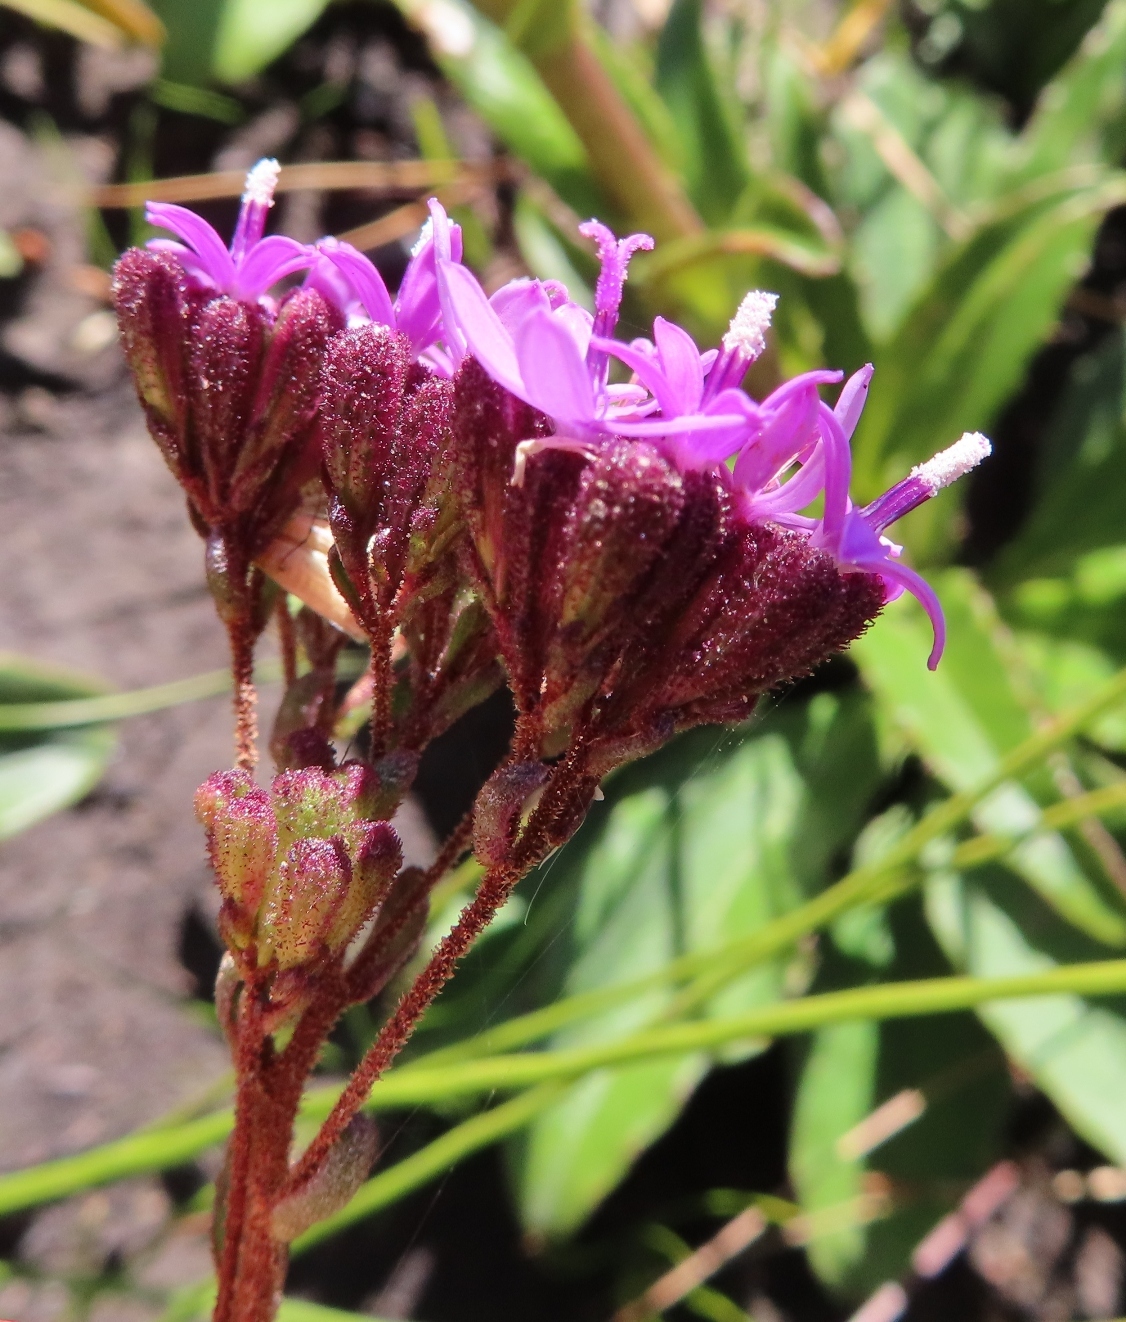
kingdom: Plantae
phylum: Tracheophyta
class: Magnoliopsida
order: Asterales
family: Asteraceae
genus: Corymbium
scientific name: Corymbium africanum
